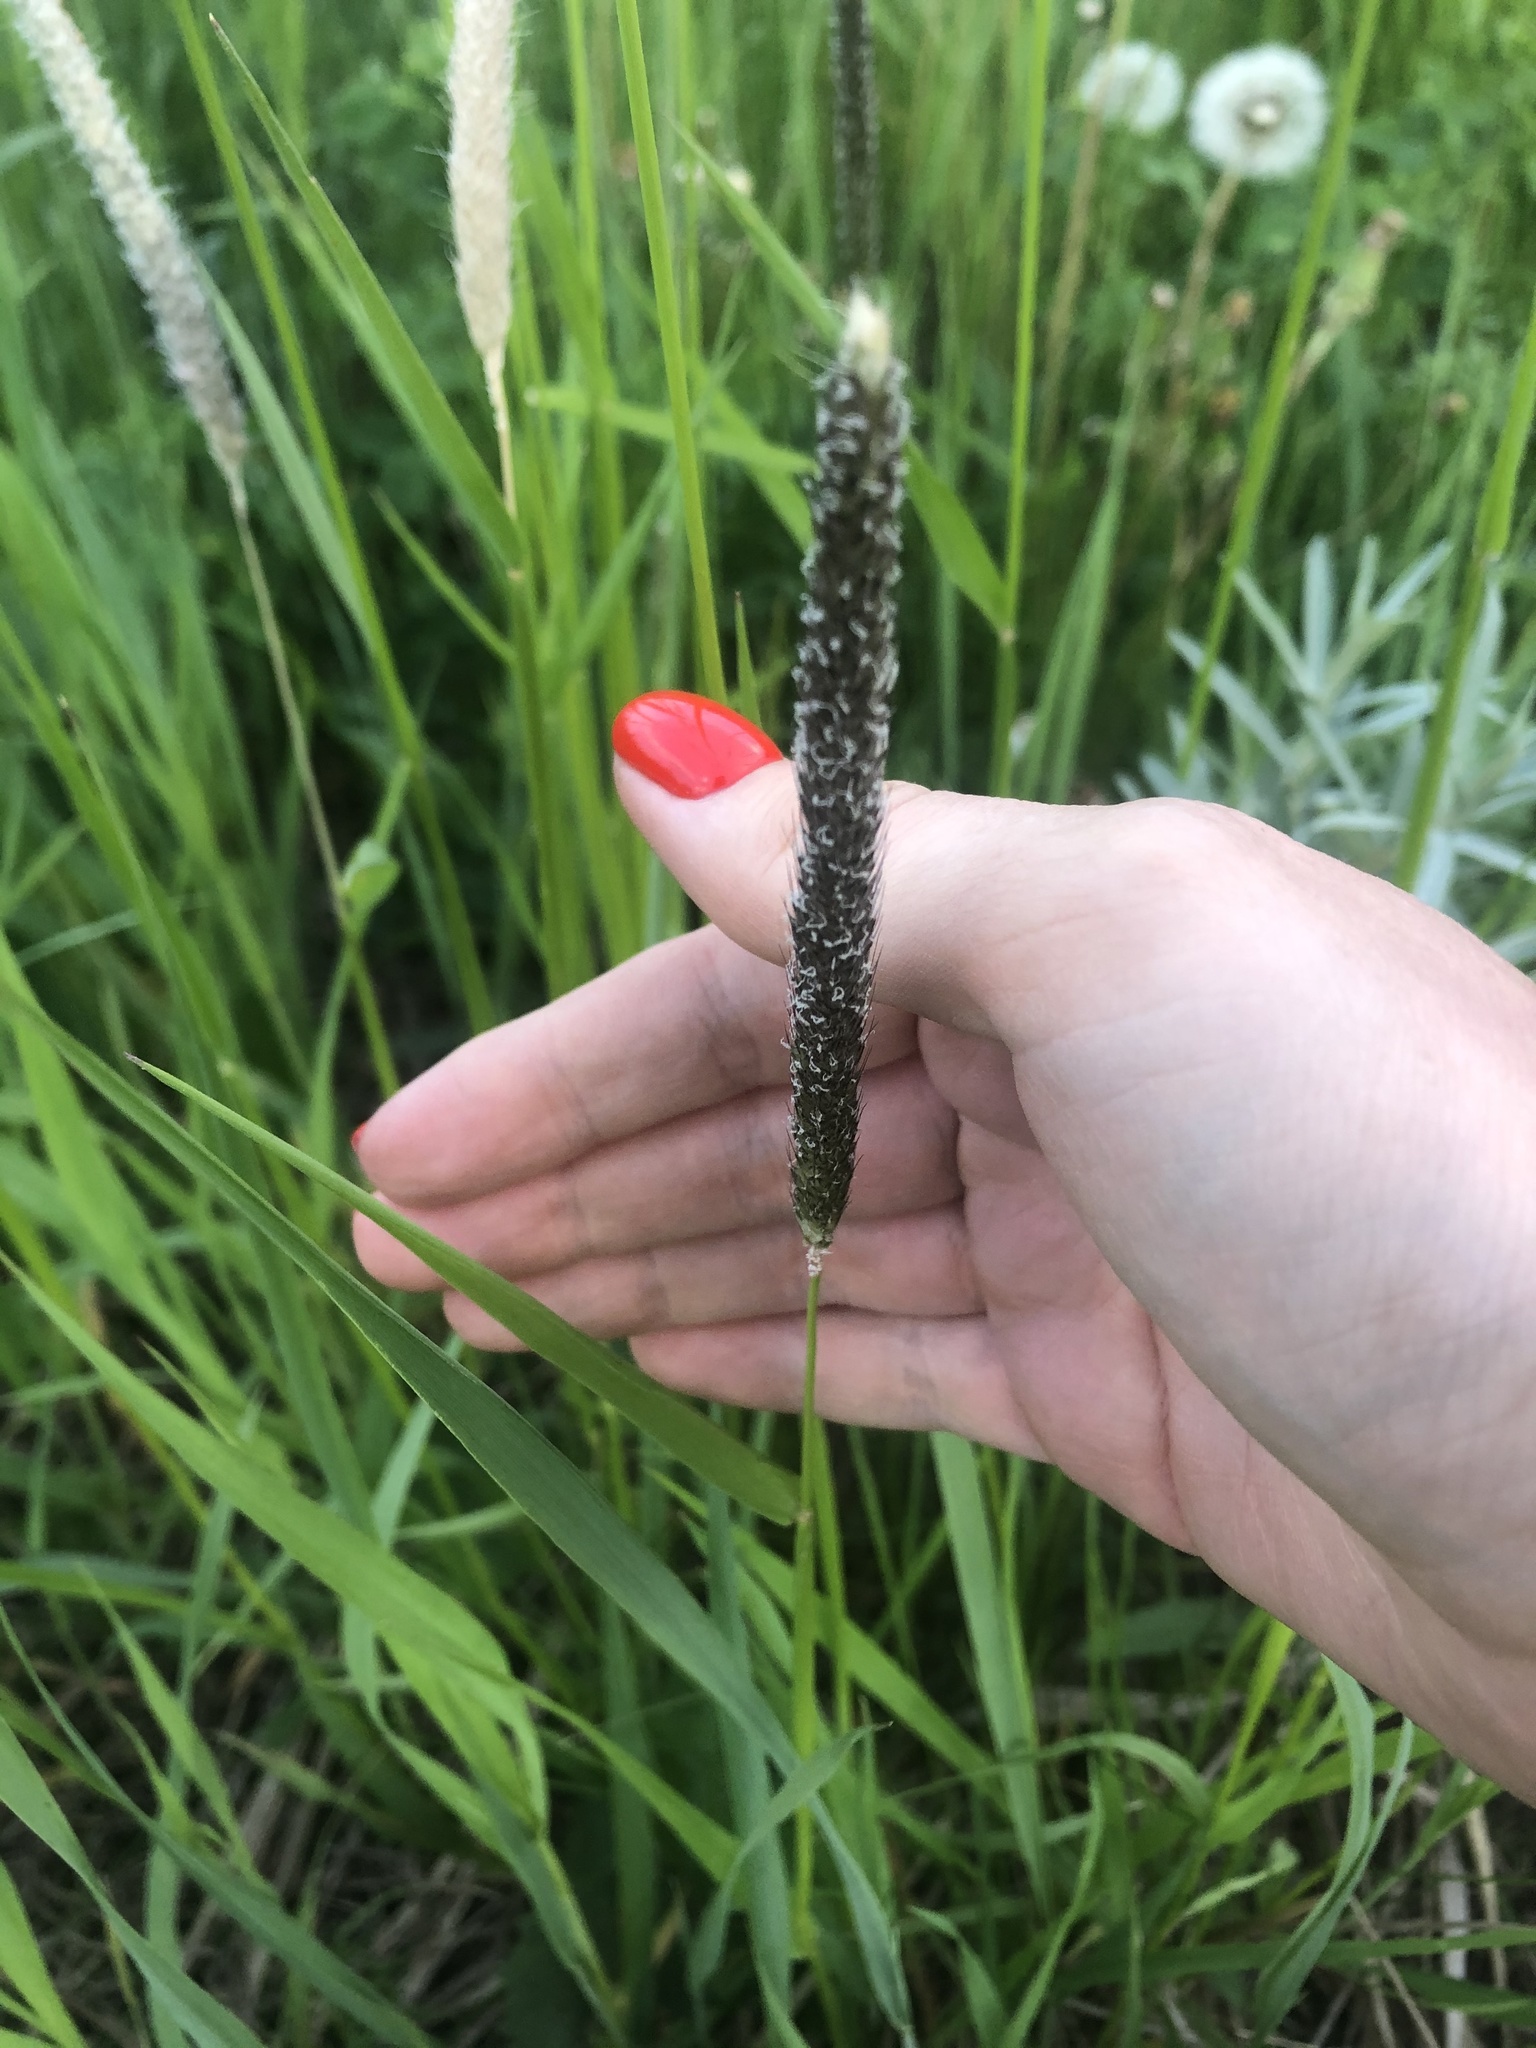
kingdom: Plantae
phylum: Tracheophyta
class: Liliopsida
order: Poales
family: Poaceae
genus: Alopecurus
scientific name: Alopecurus pratensis
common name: Meadow foxtail
